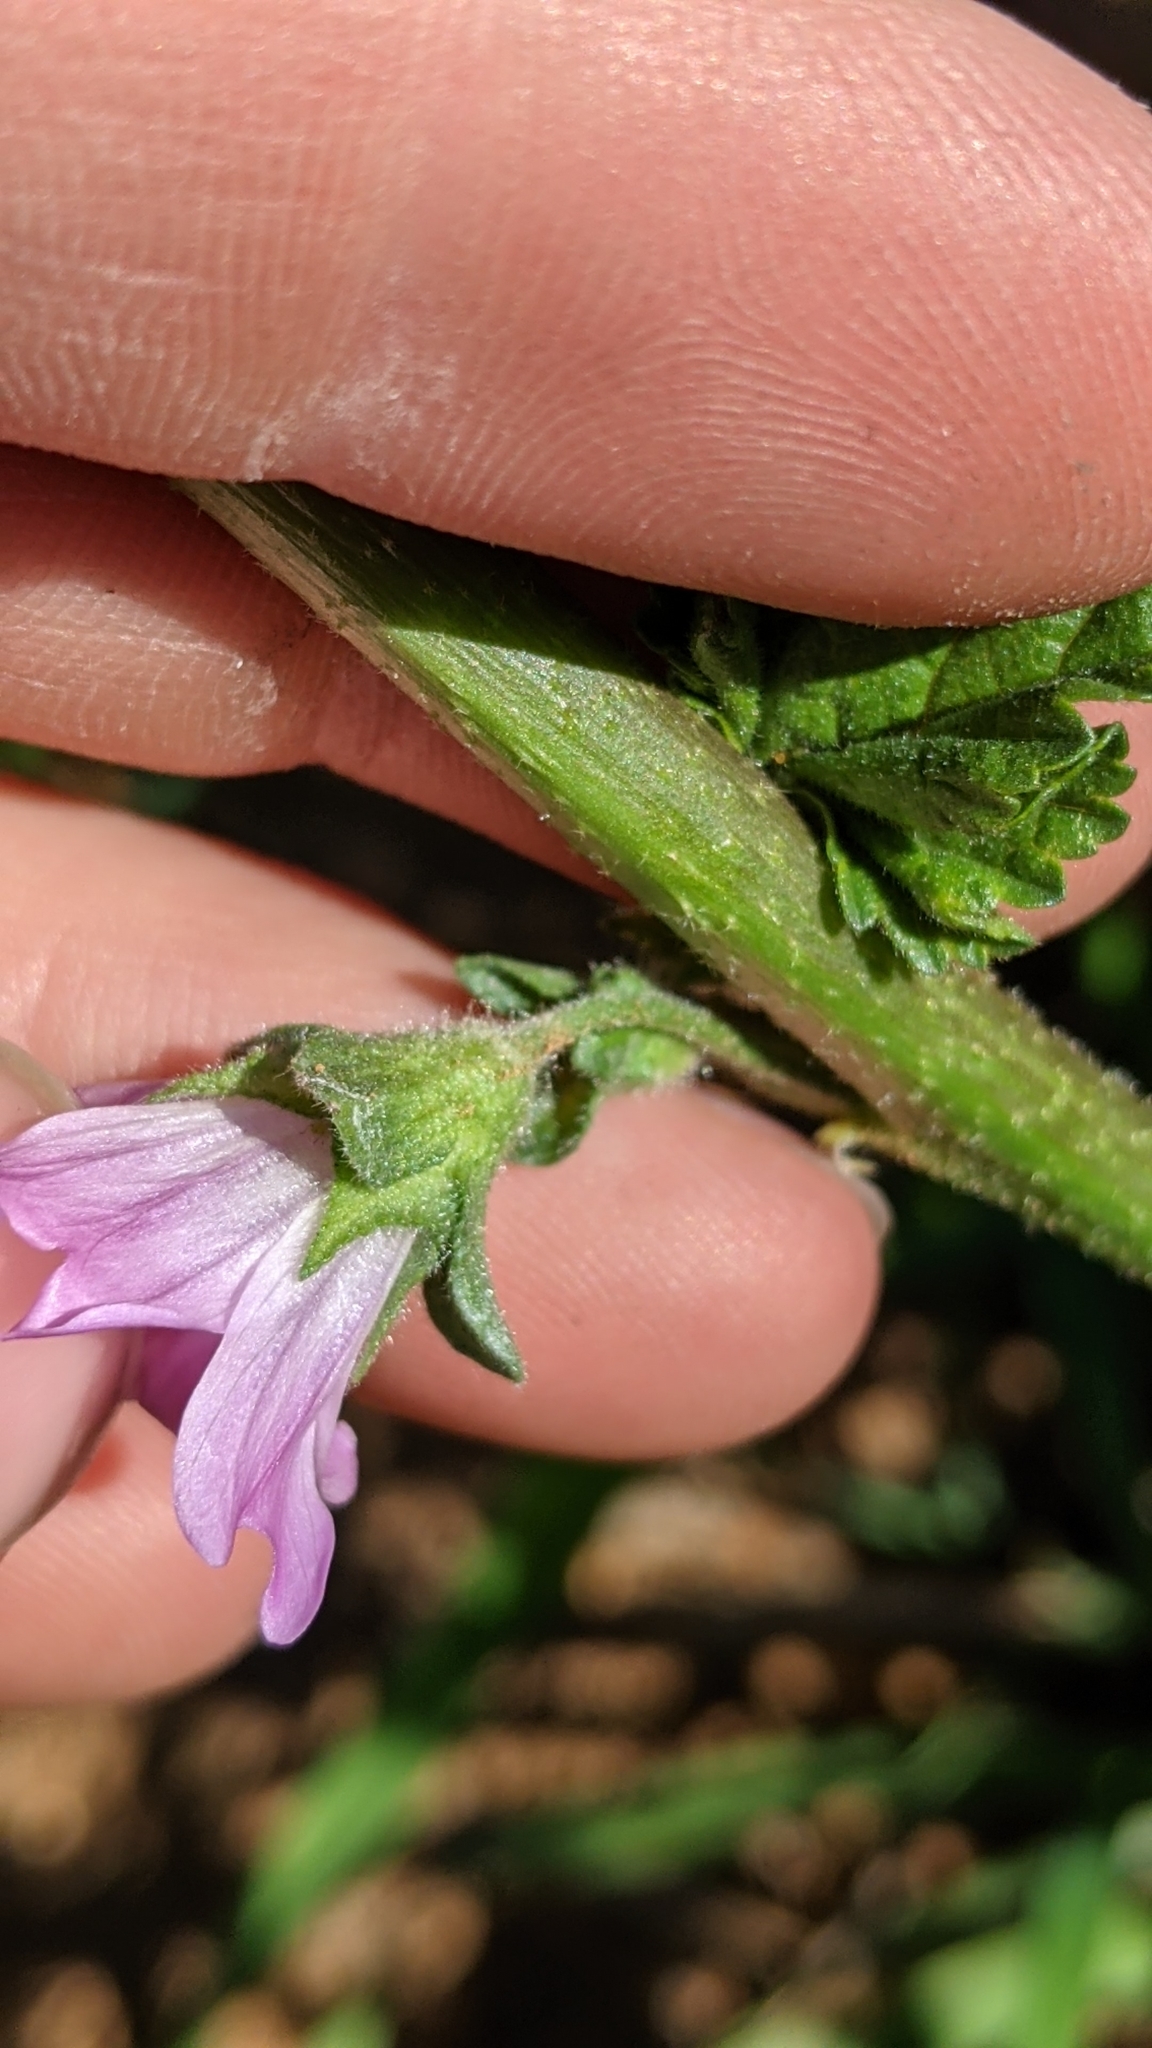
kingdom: Plantae
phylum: Tracheophyta
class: Magnoliopsida
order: Malvales
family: Malvaceae
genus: Malva
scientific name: Malva multiflora
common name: Cheeseweed
